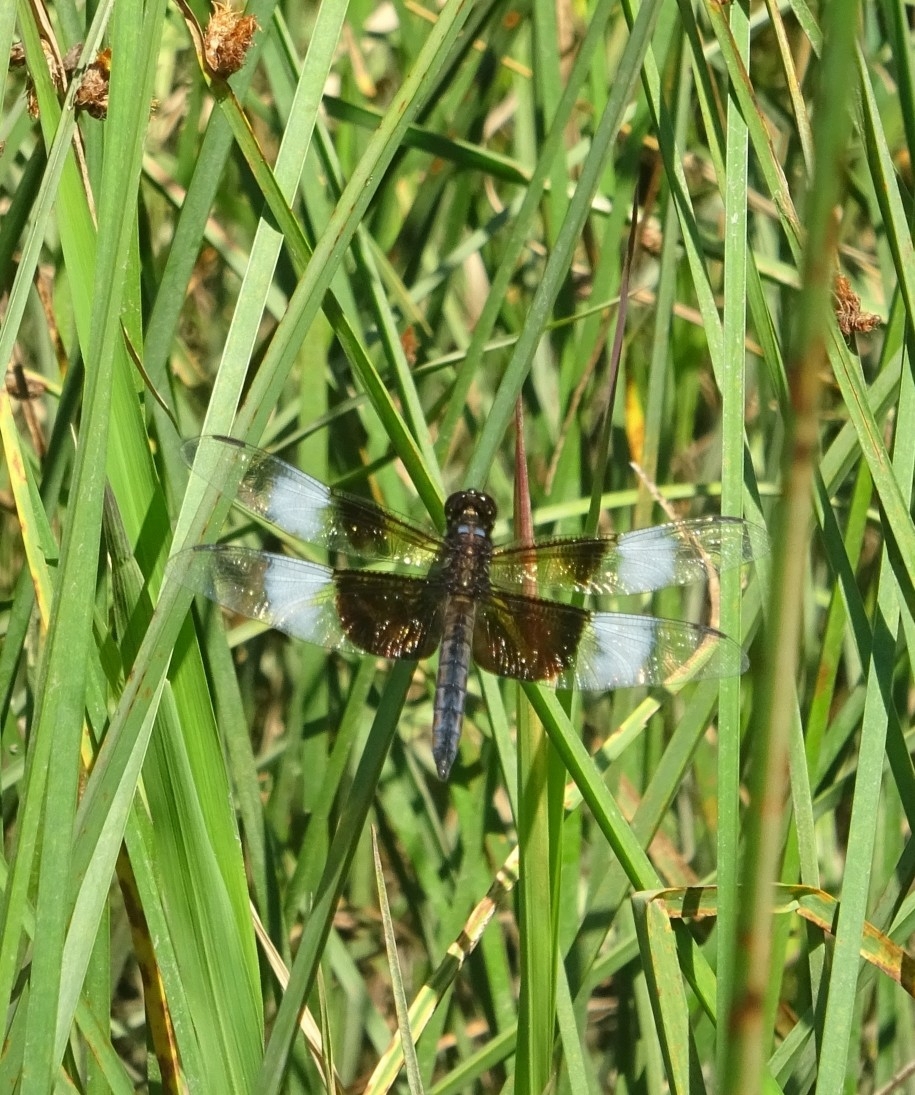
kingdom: Animalia
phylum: Arthropoda
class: Insecta
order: Odonata
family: Libellulidae
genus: Libellula
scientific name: Libellula luctuosa
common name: Widow skimmer
